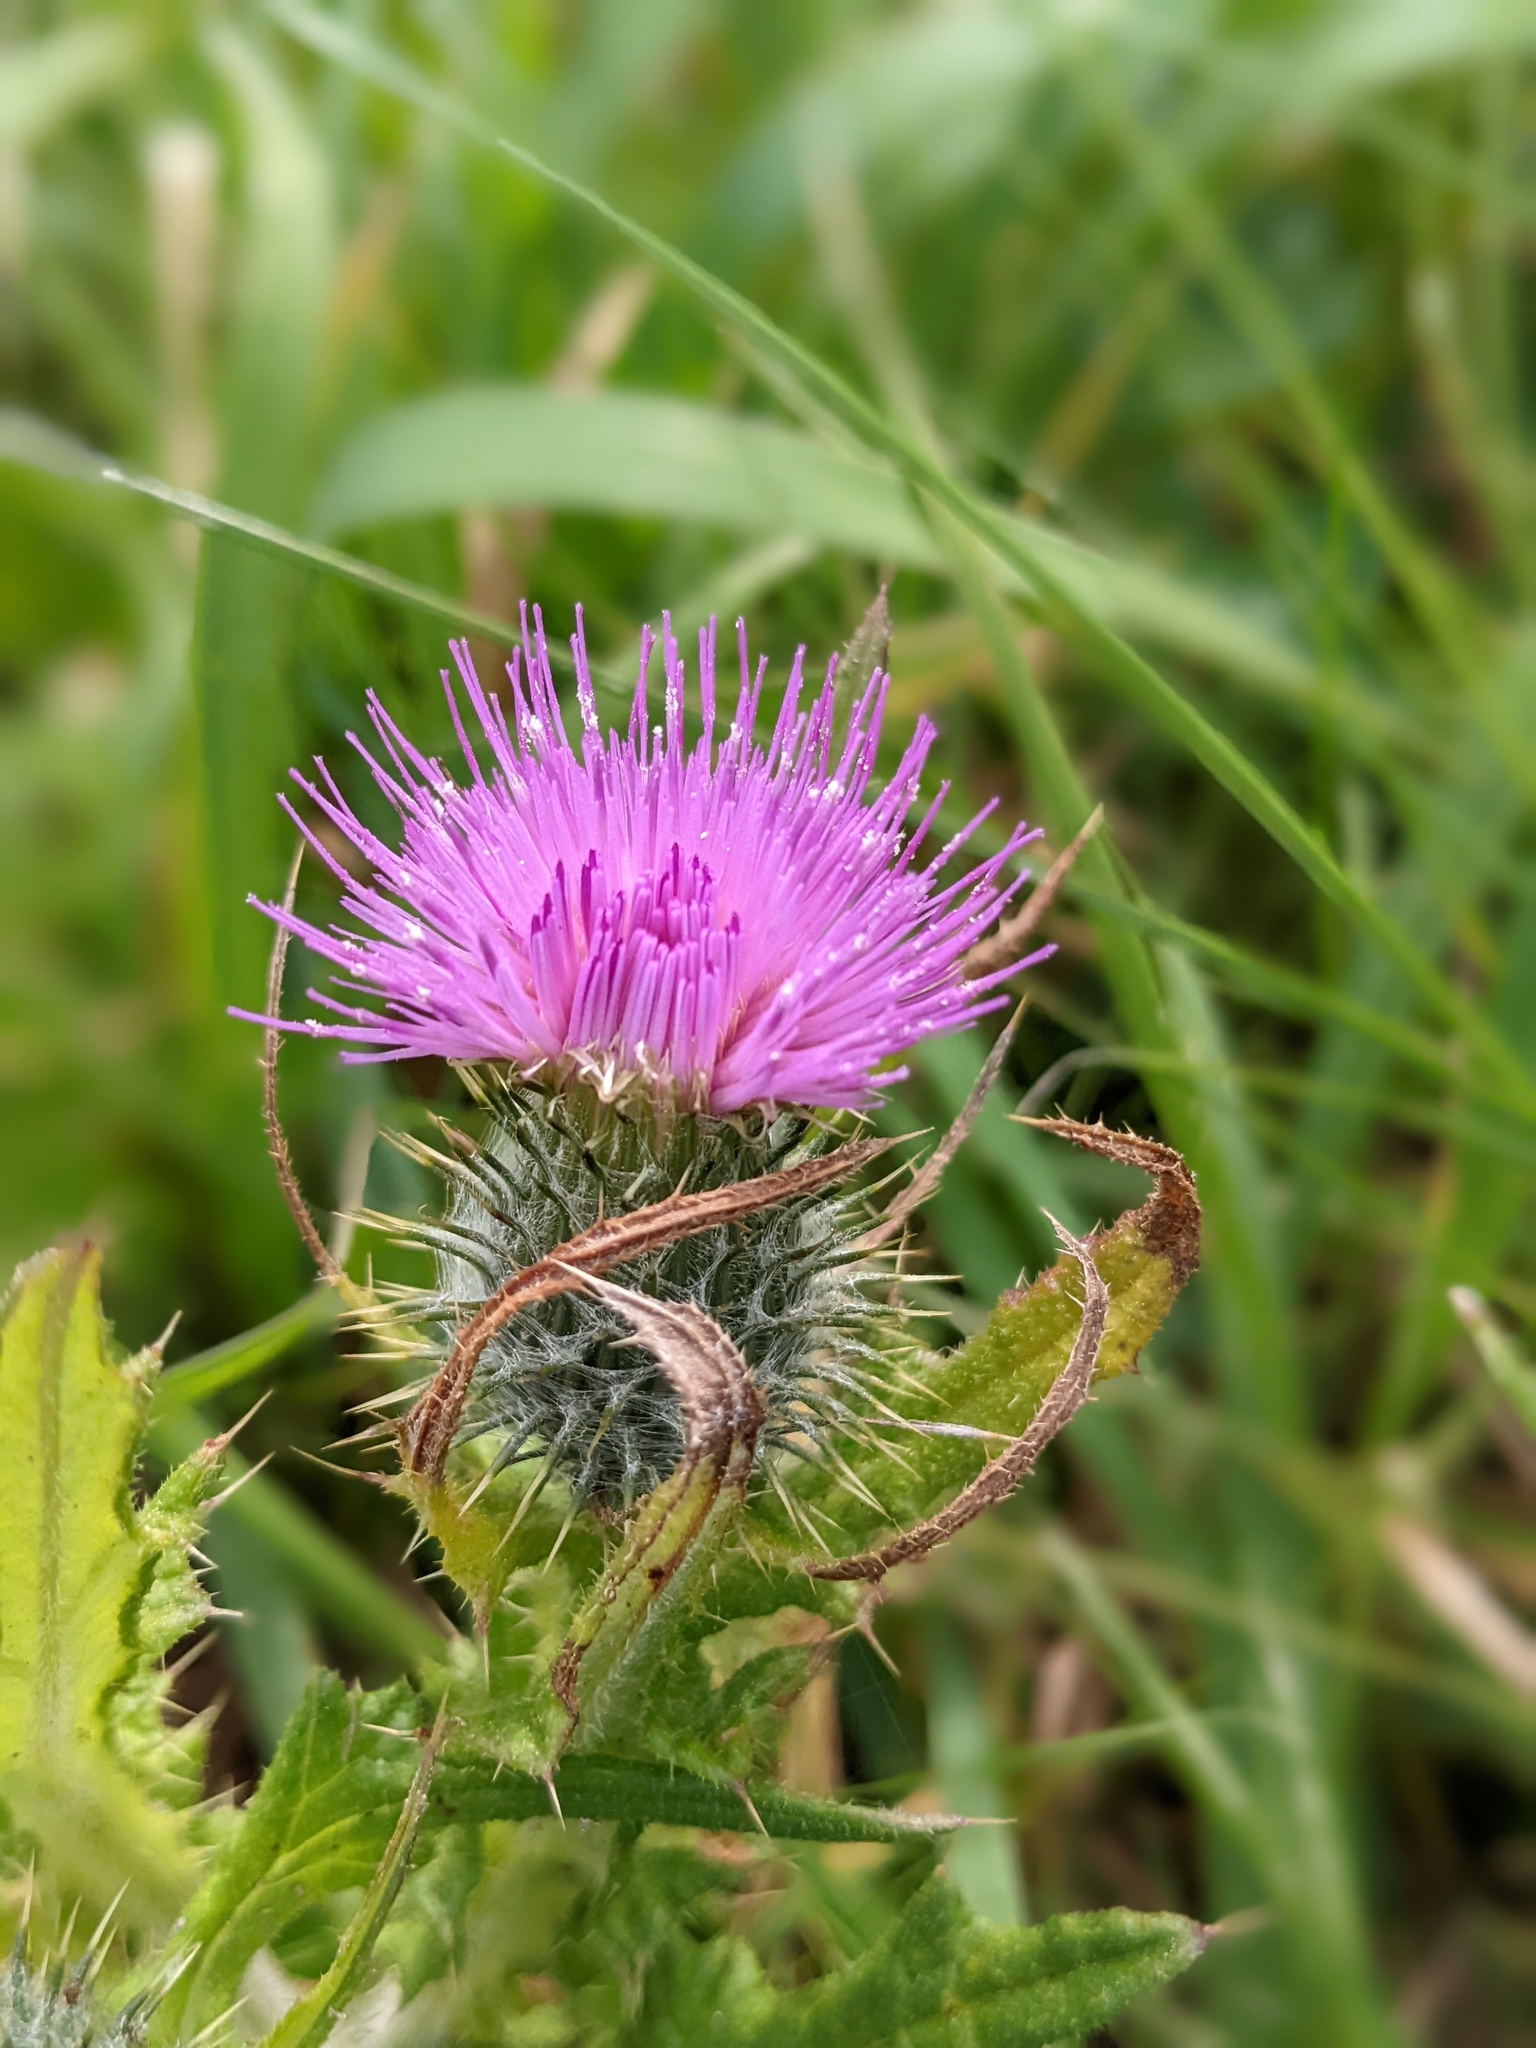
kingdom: Plantae
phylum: Tracheophyta
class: Magnoliopsida
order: Asterales
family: Asteraceae
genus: Cirsium
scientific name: Cirsium vulgare
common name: Bull thistle
